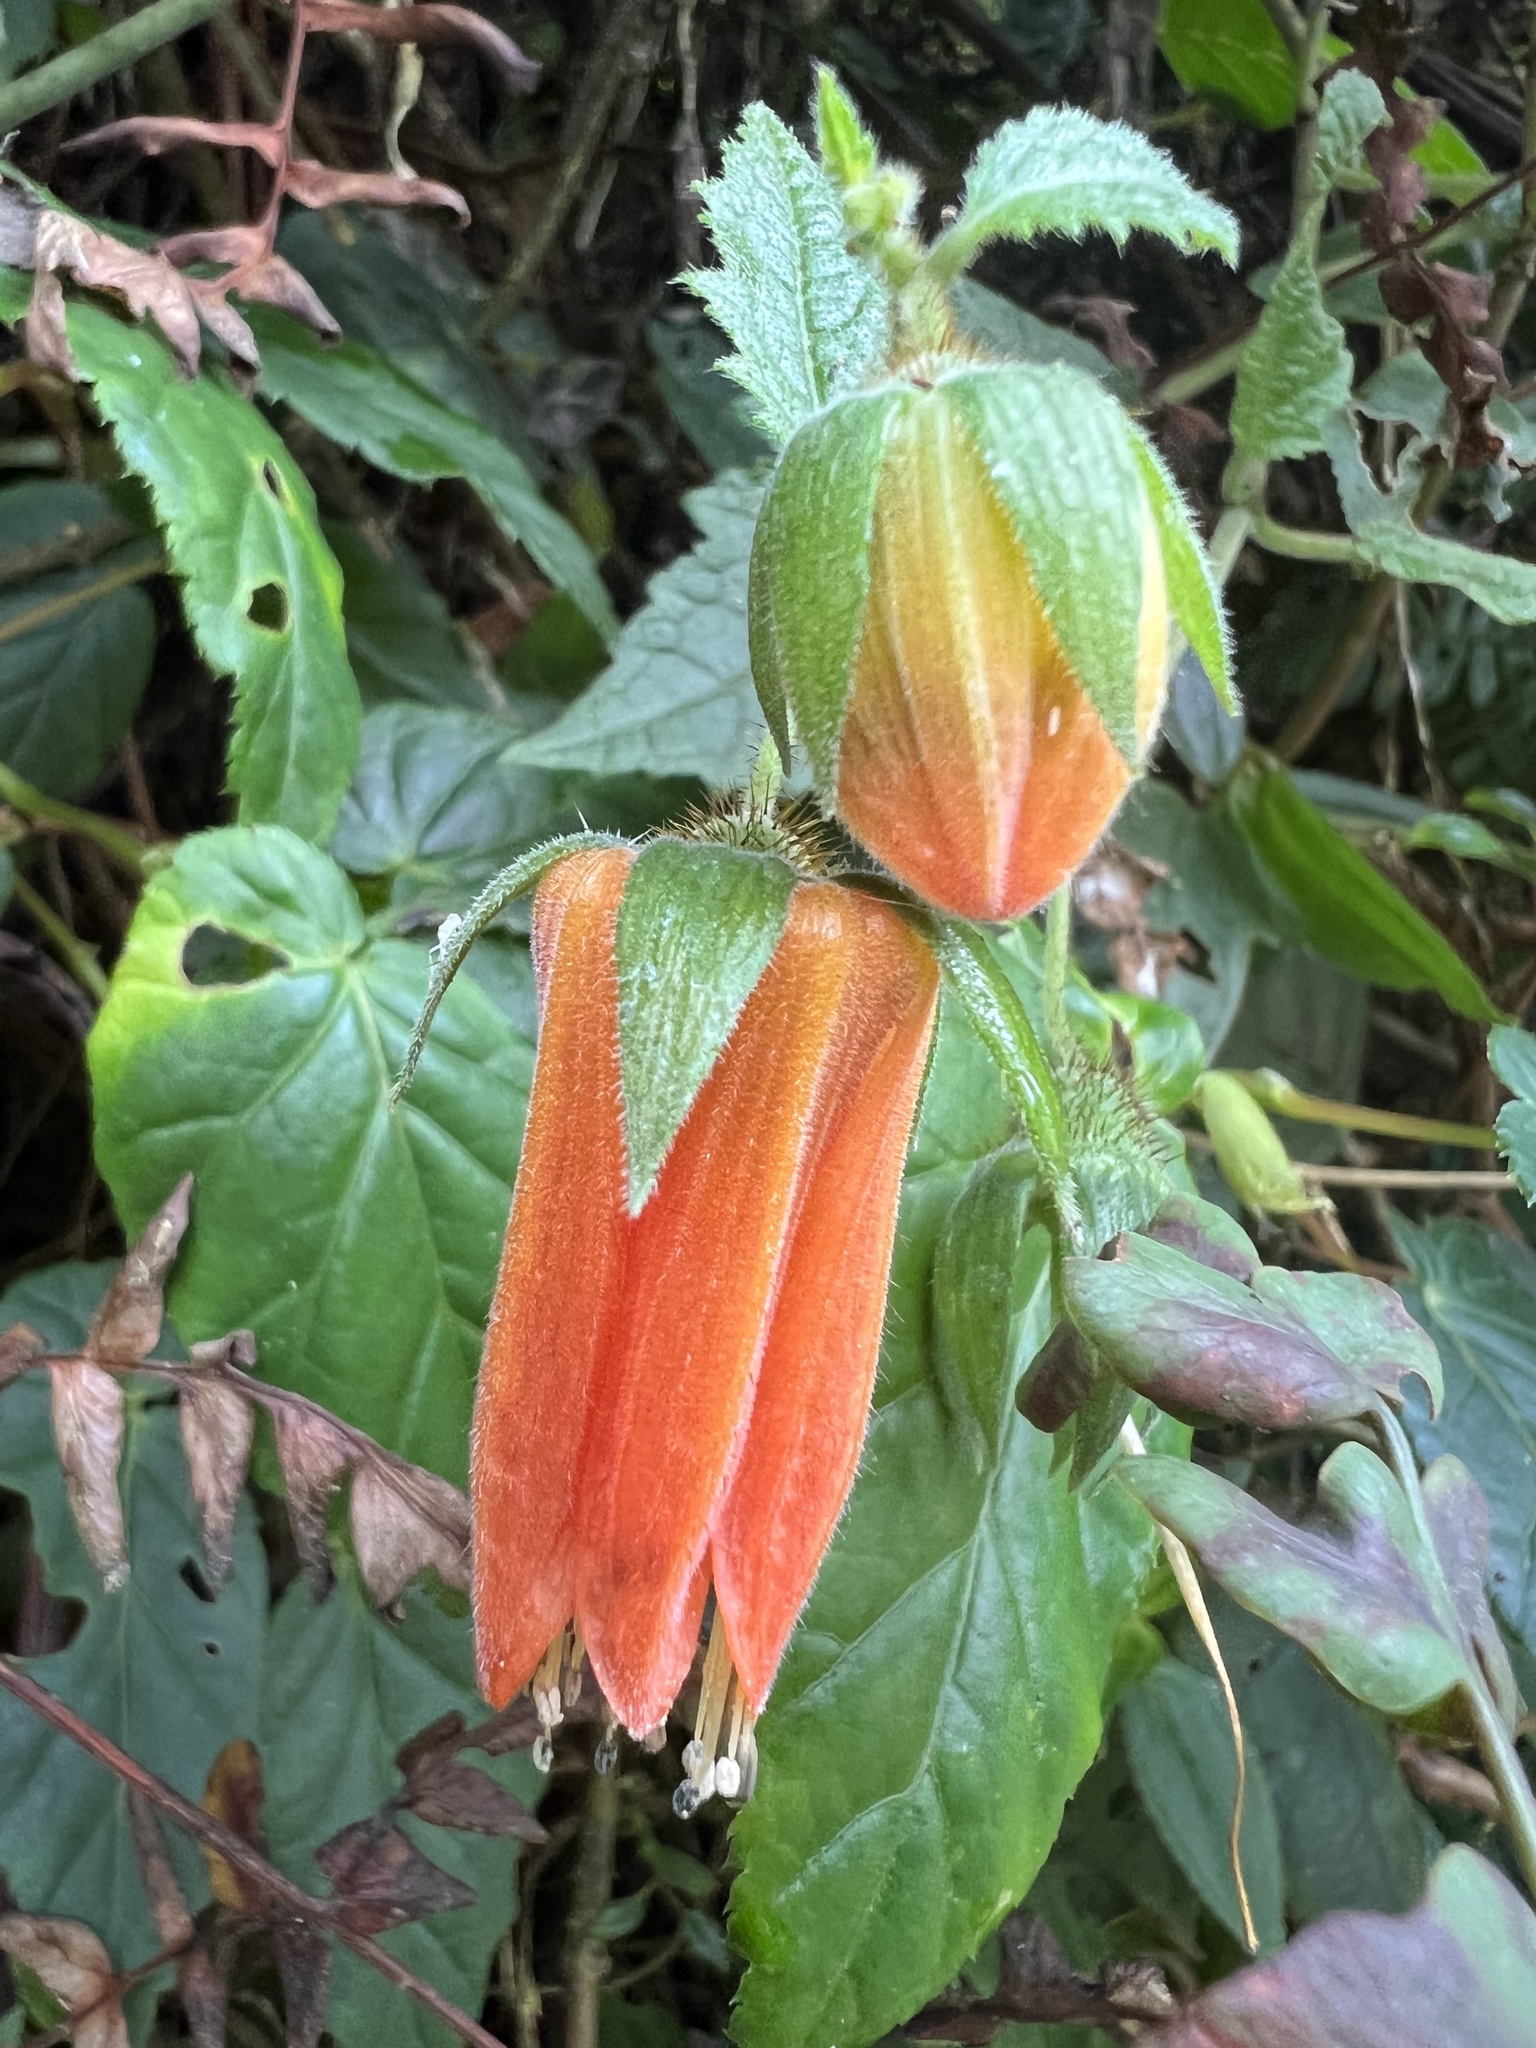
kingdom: Plantae
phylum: Tracheophyta
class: Magnoliopsida
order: Cornales
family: Loasaceae
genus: Nasa
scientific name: Nasa campaniflora
